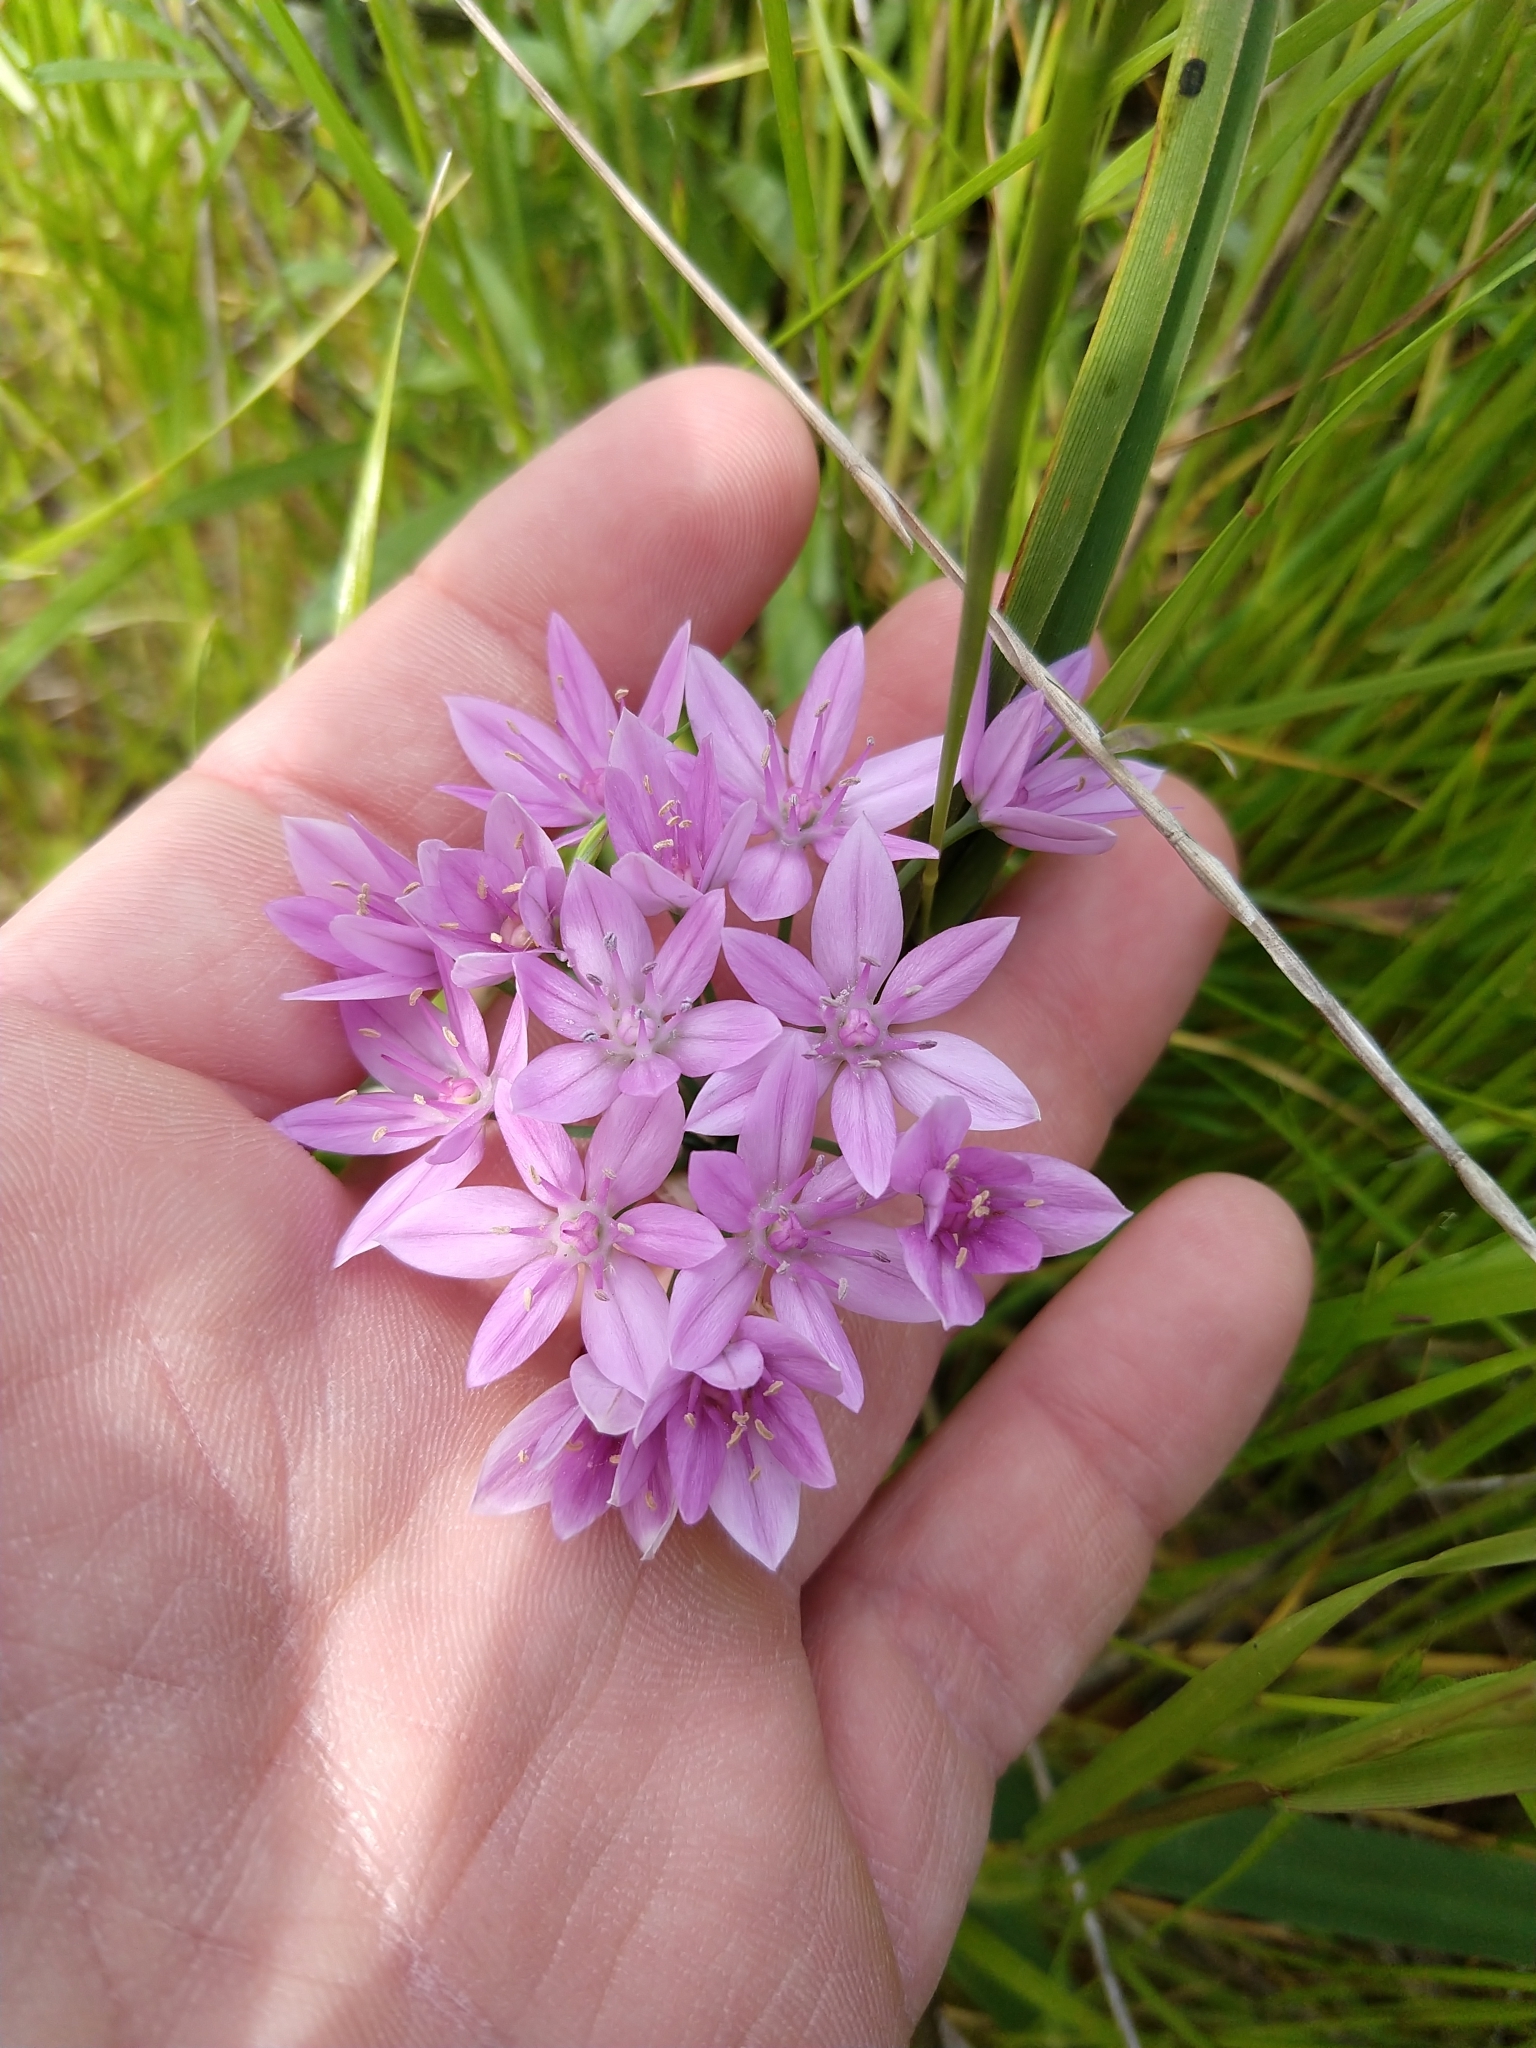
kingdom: Plantae
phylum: Tracheophyta
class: Liliopsida
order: Asparagales
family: Amaryllidaceae
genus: Allium
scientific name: Allium unifolium
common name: American garlic
